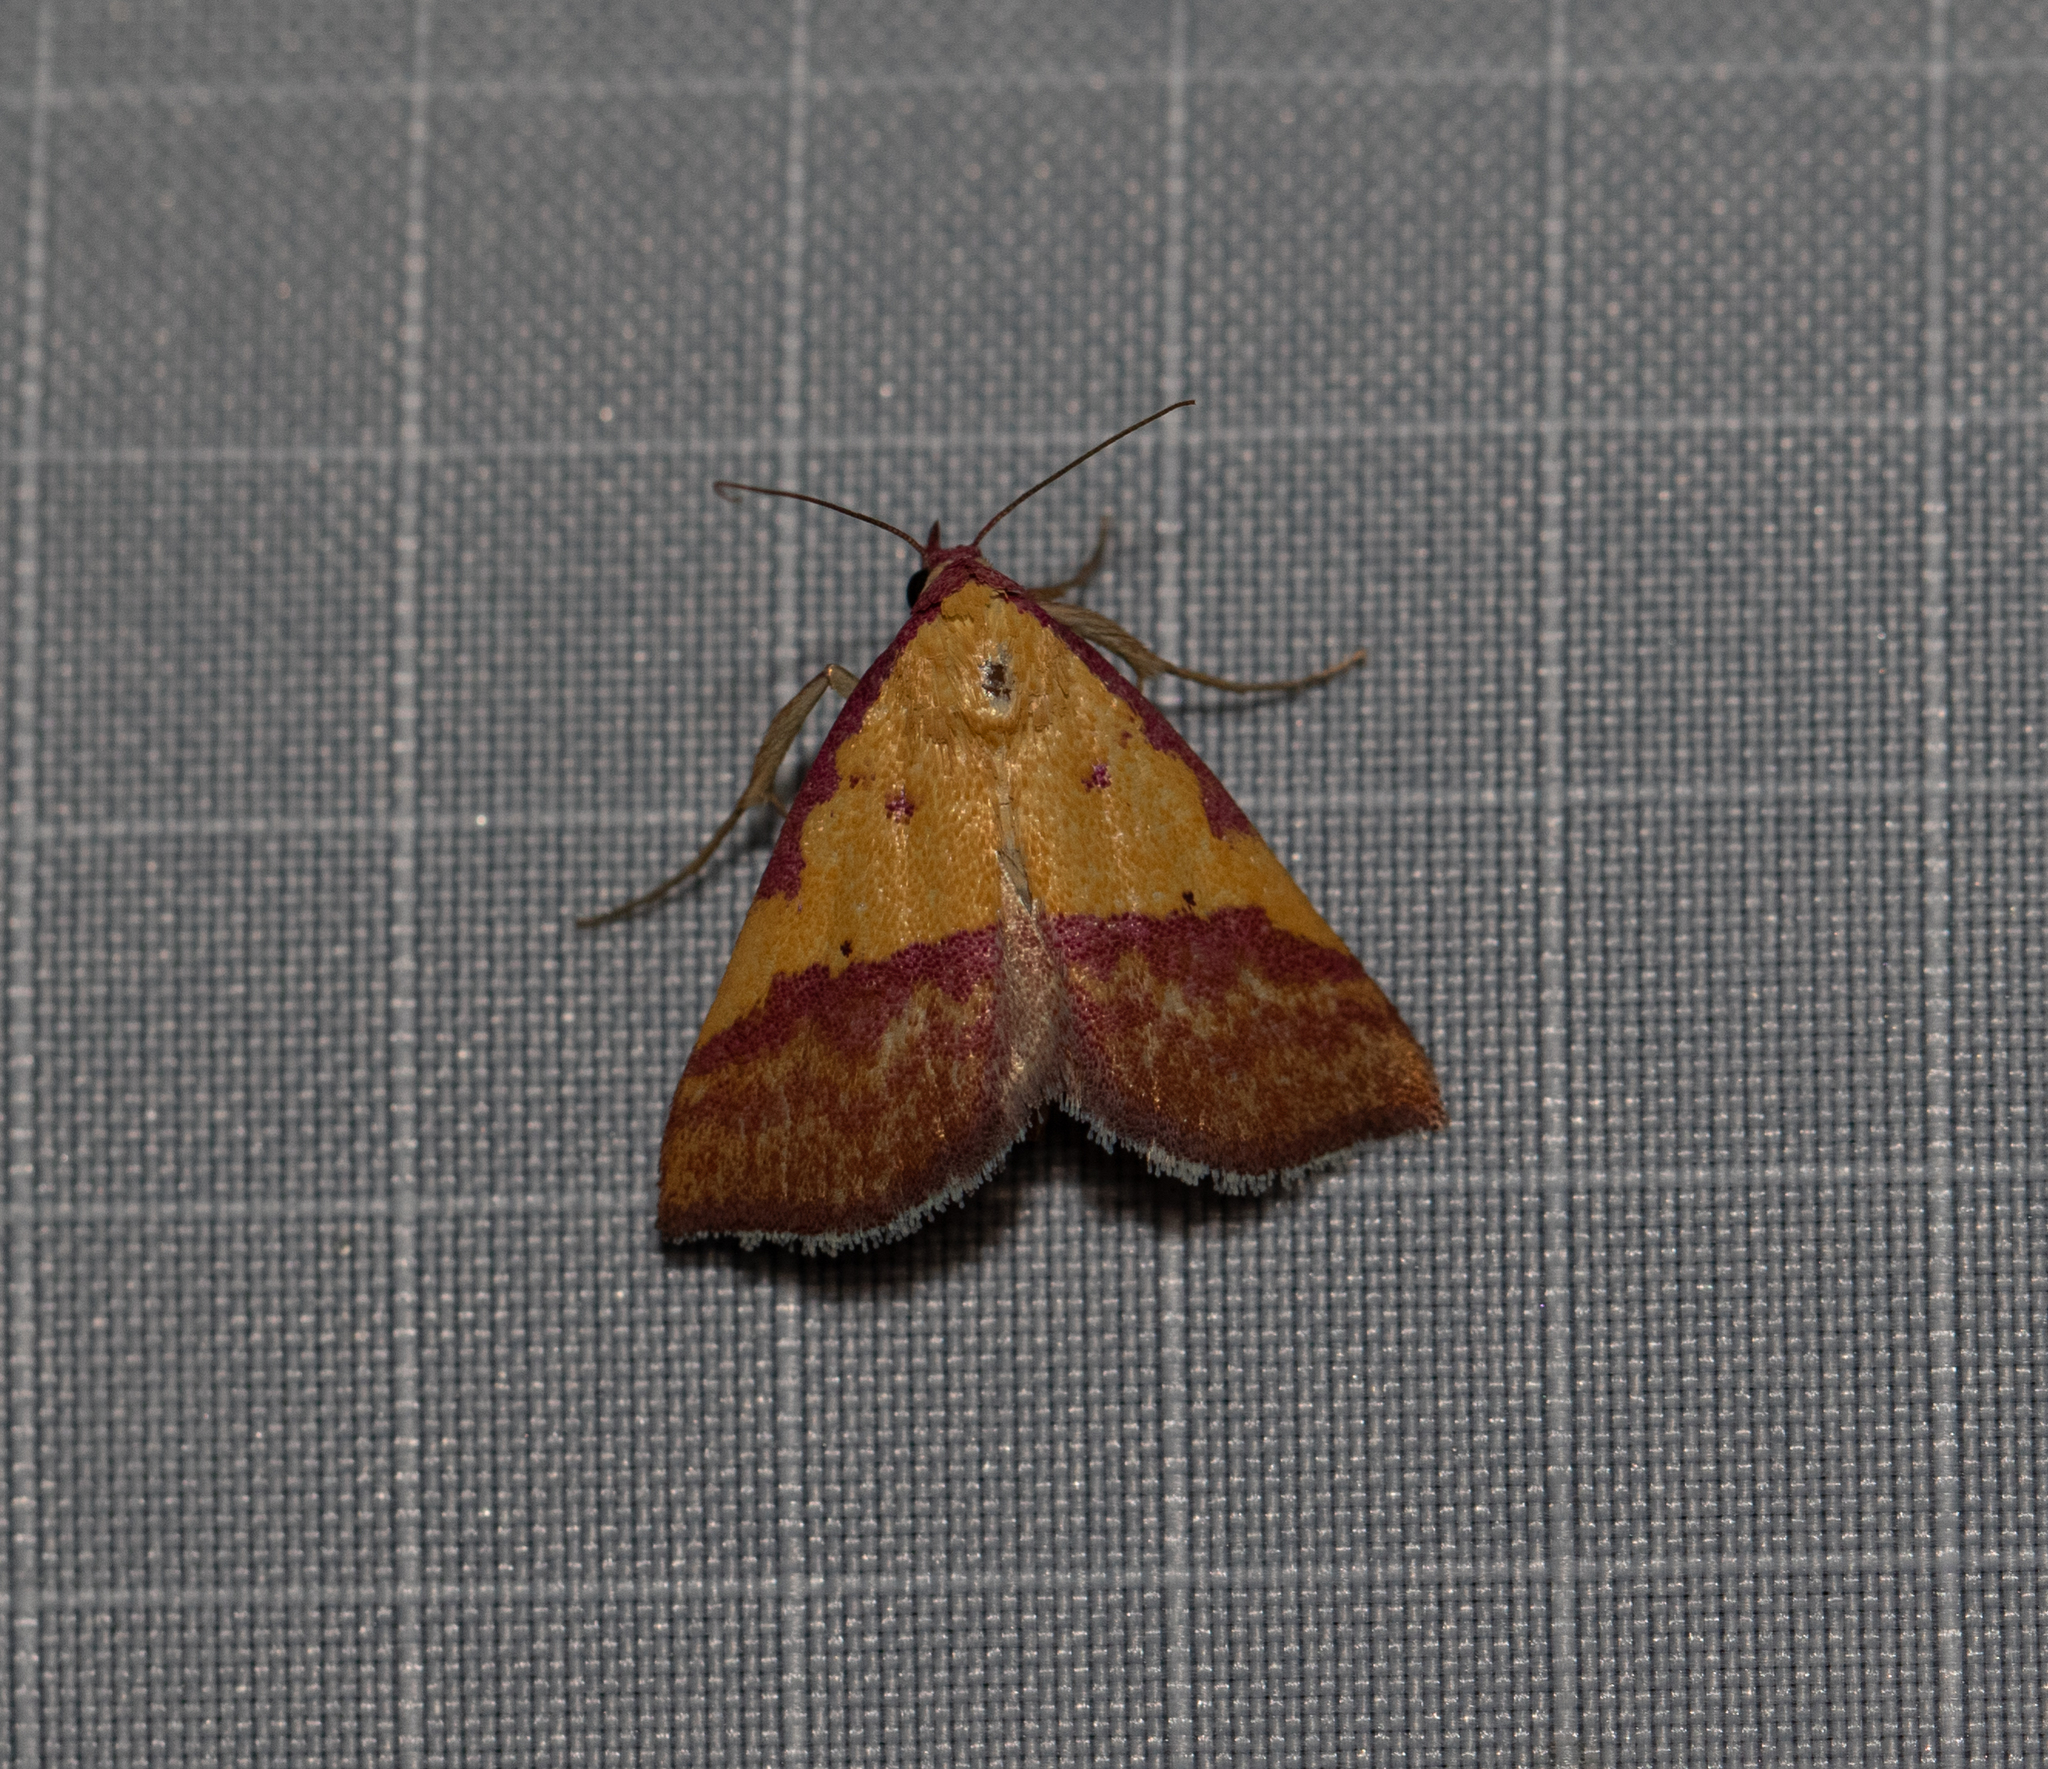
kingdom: Animalia
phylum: Arthropoda
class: Insecta
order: Lepidoptera
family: Erebidae
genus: Phytometra
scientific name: Phytometra rhodarialis
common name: Pink-bordered yellow
